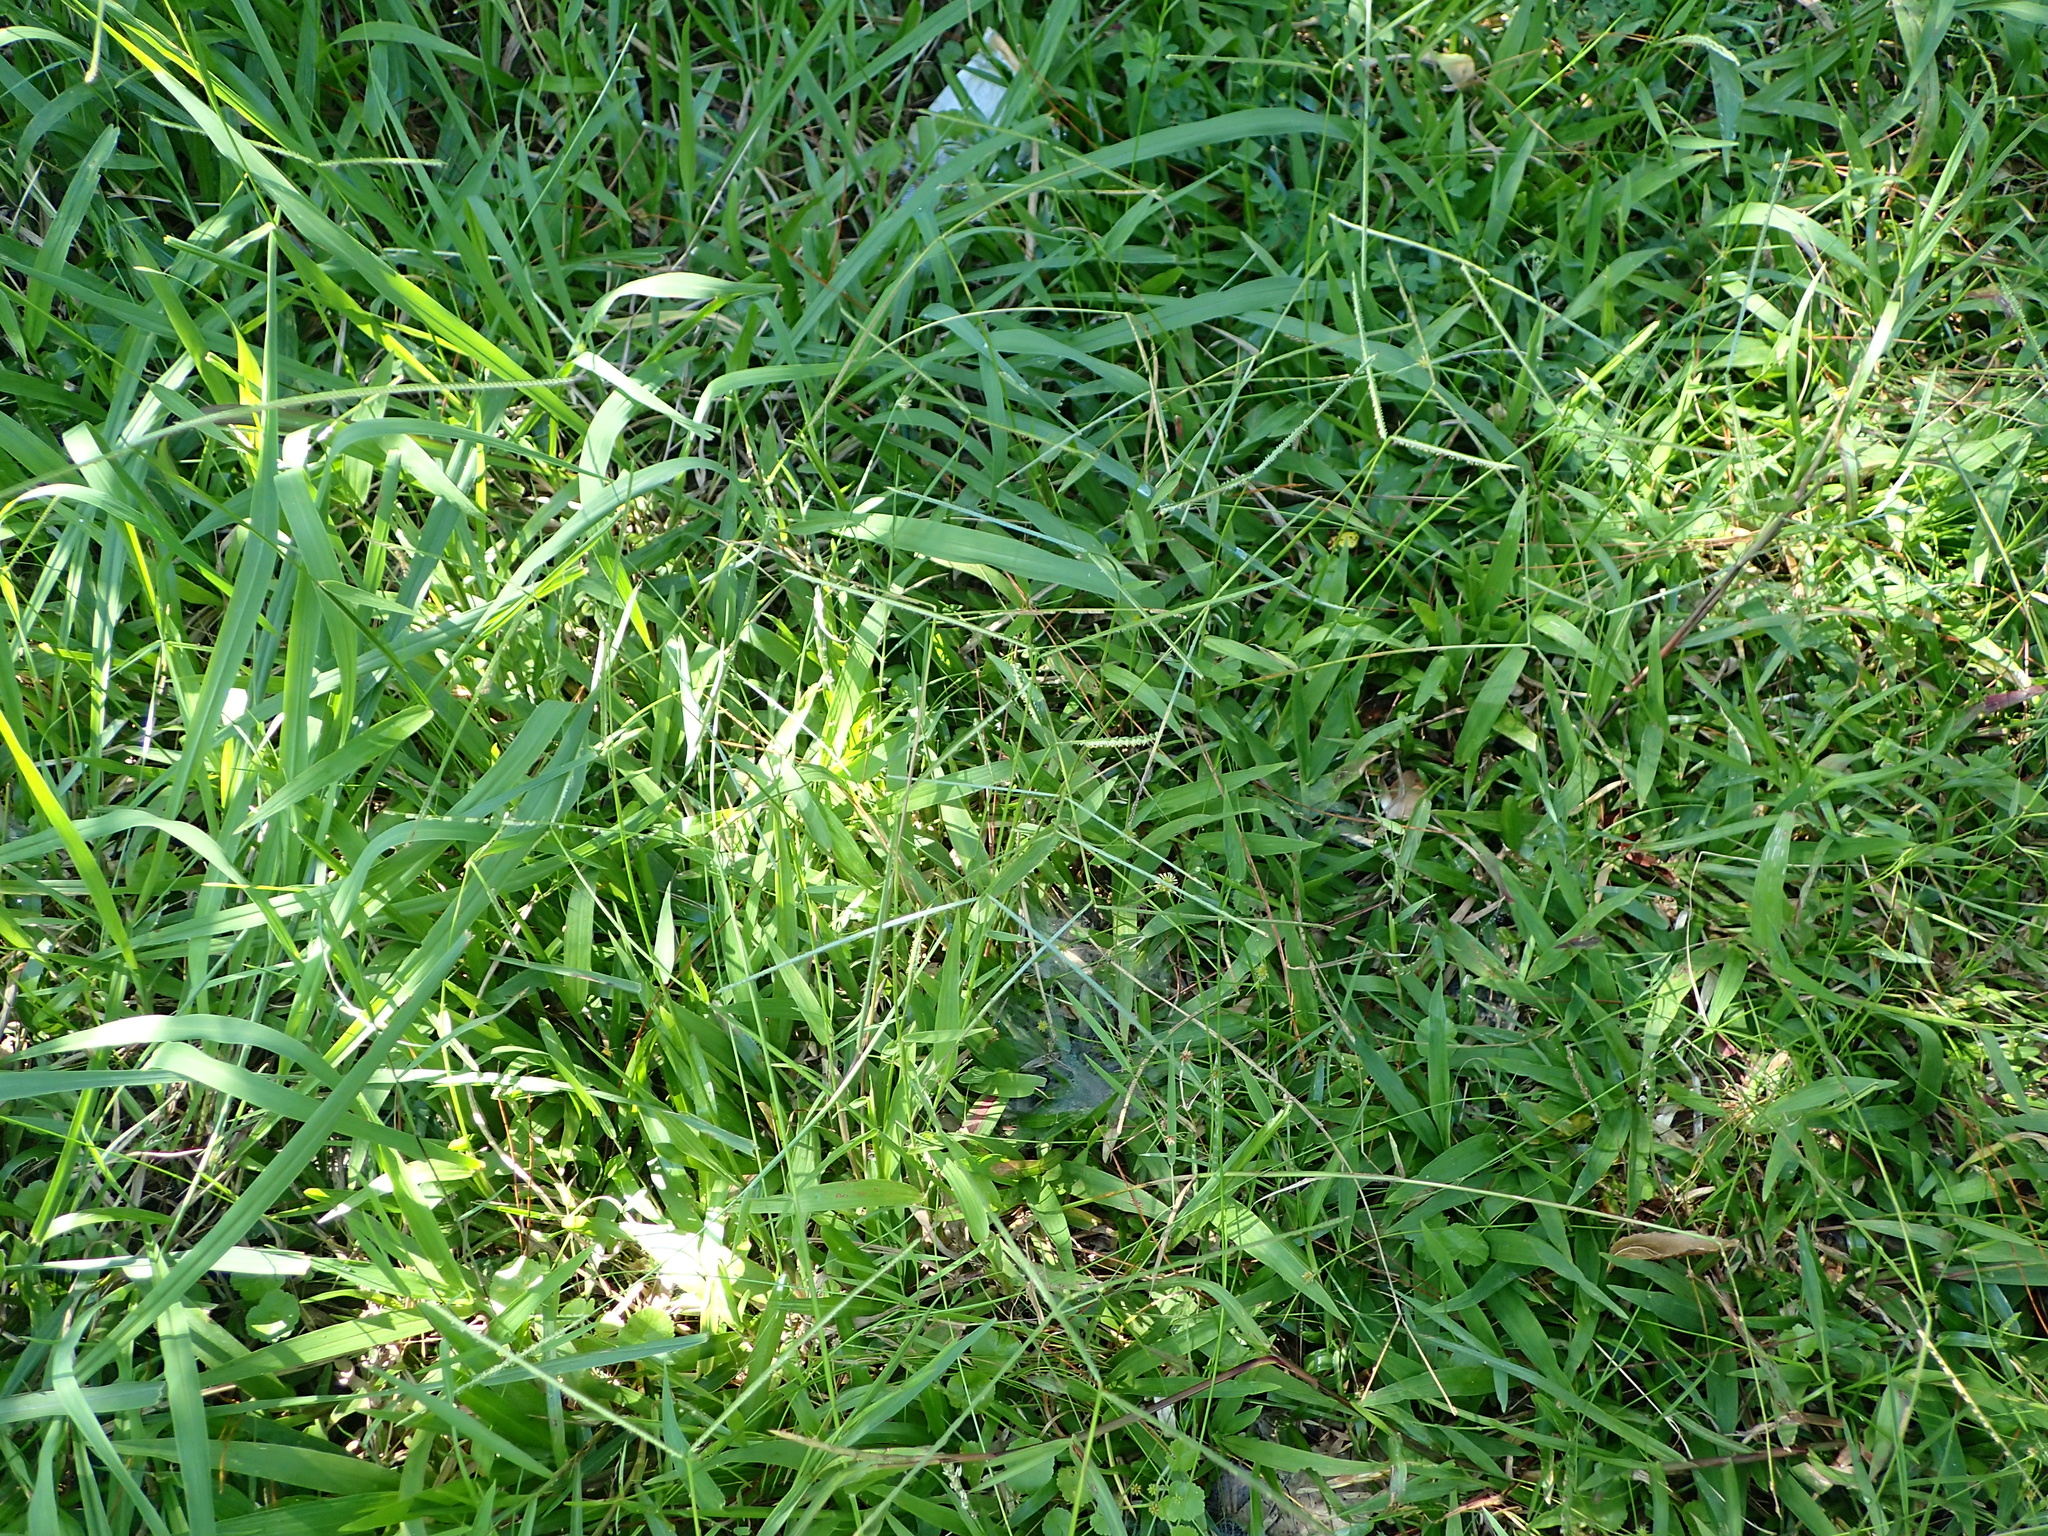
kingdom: Plantae
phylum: Tracheophyta
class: Liliopsida
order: Poales
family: Poaceae
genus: Paspalum
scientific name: Paspalum conjugatum
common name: Hilograss
